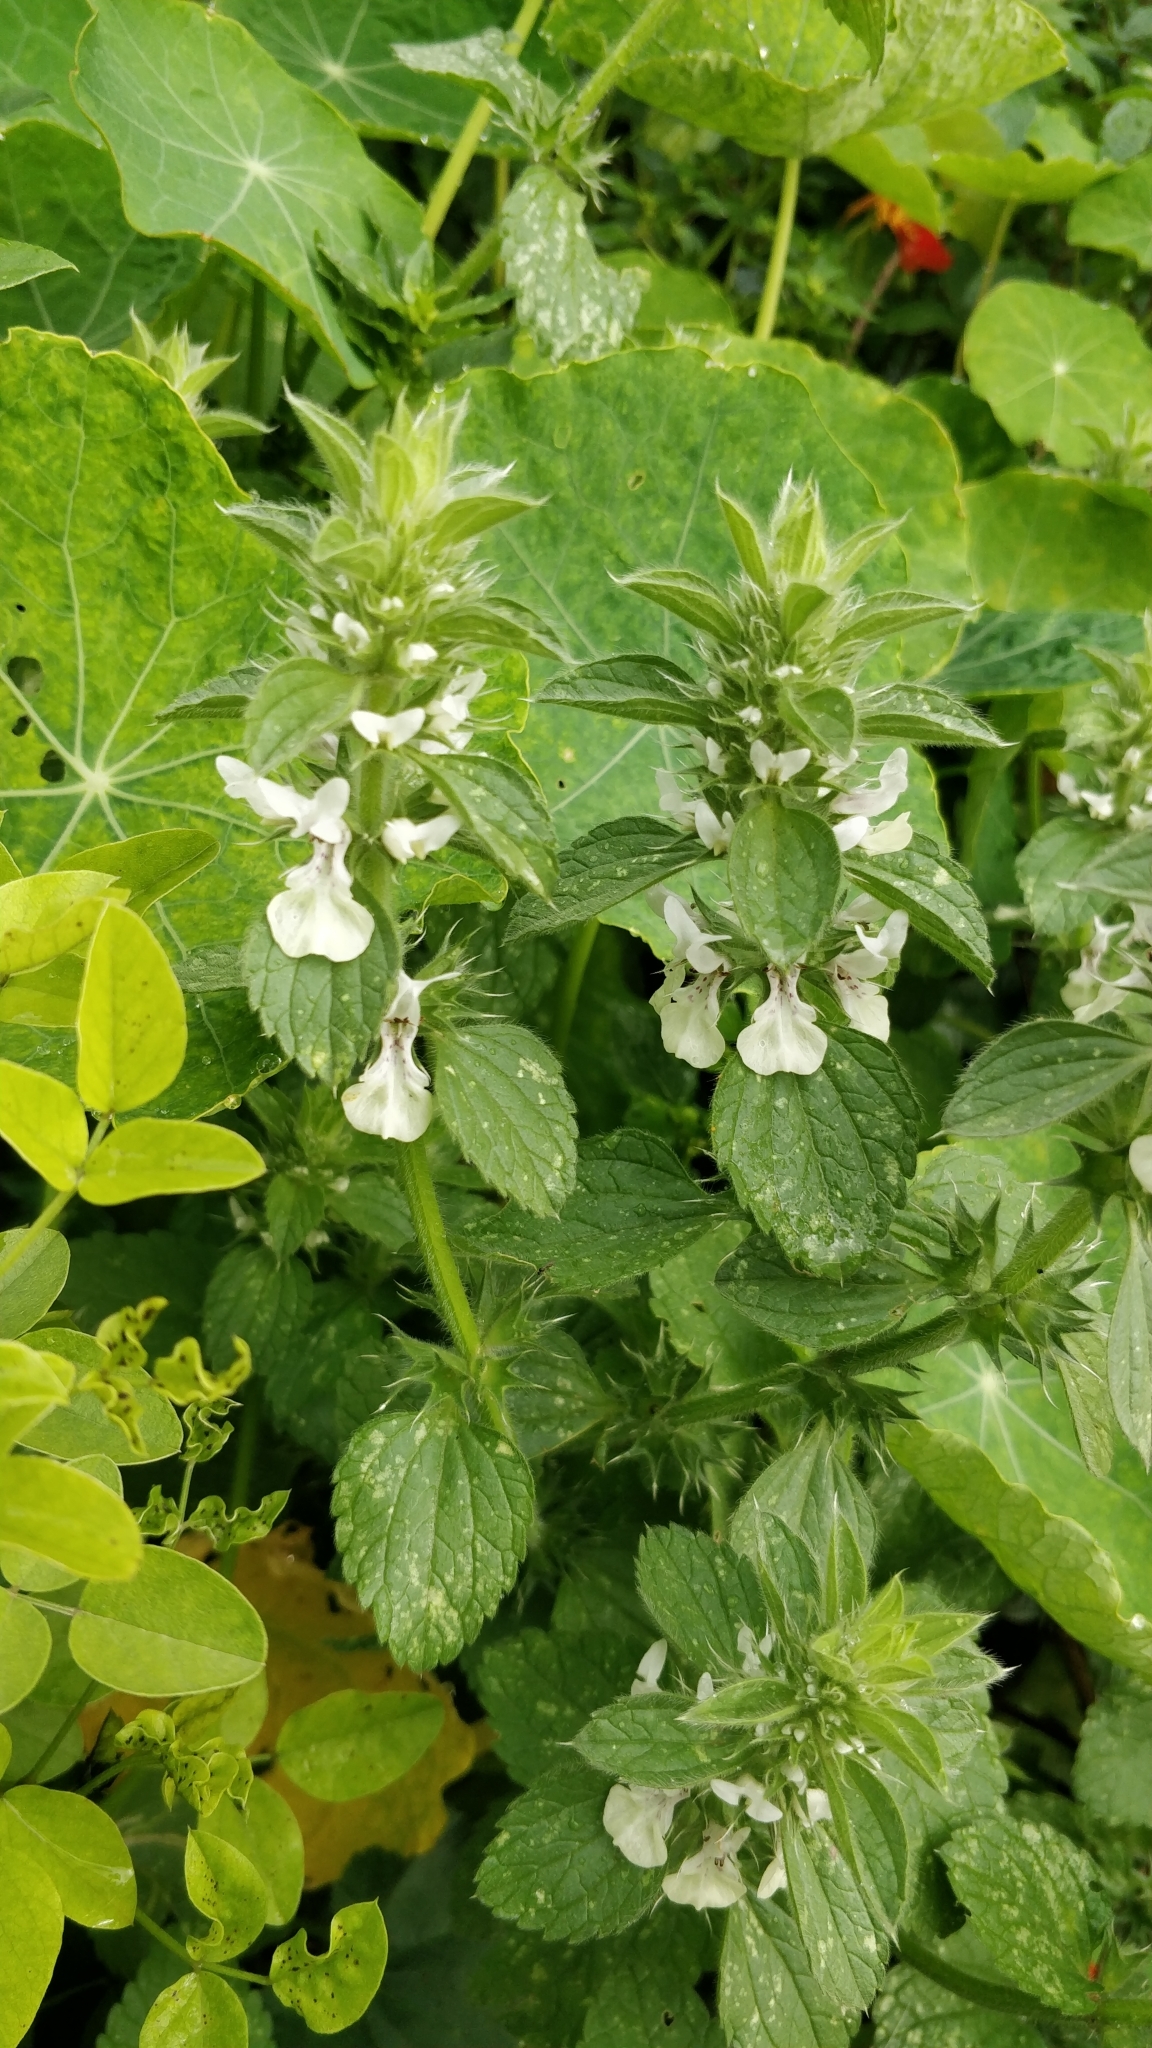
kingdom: Plantae
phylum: Tracheophyta
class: Magnoliopsida
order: Lamiales
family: Lamiaceae
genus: Stachys
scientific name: Stachys ocymastrum
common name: Italian hedgenettle
